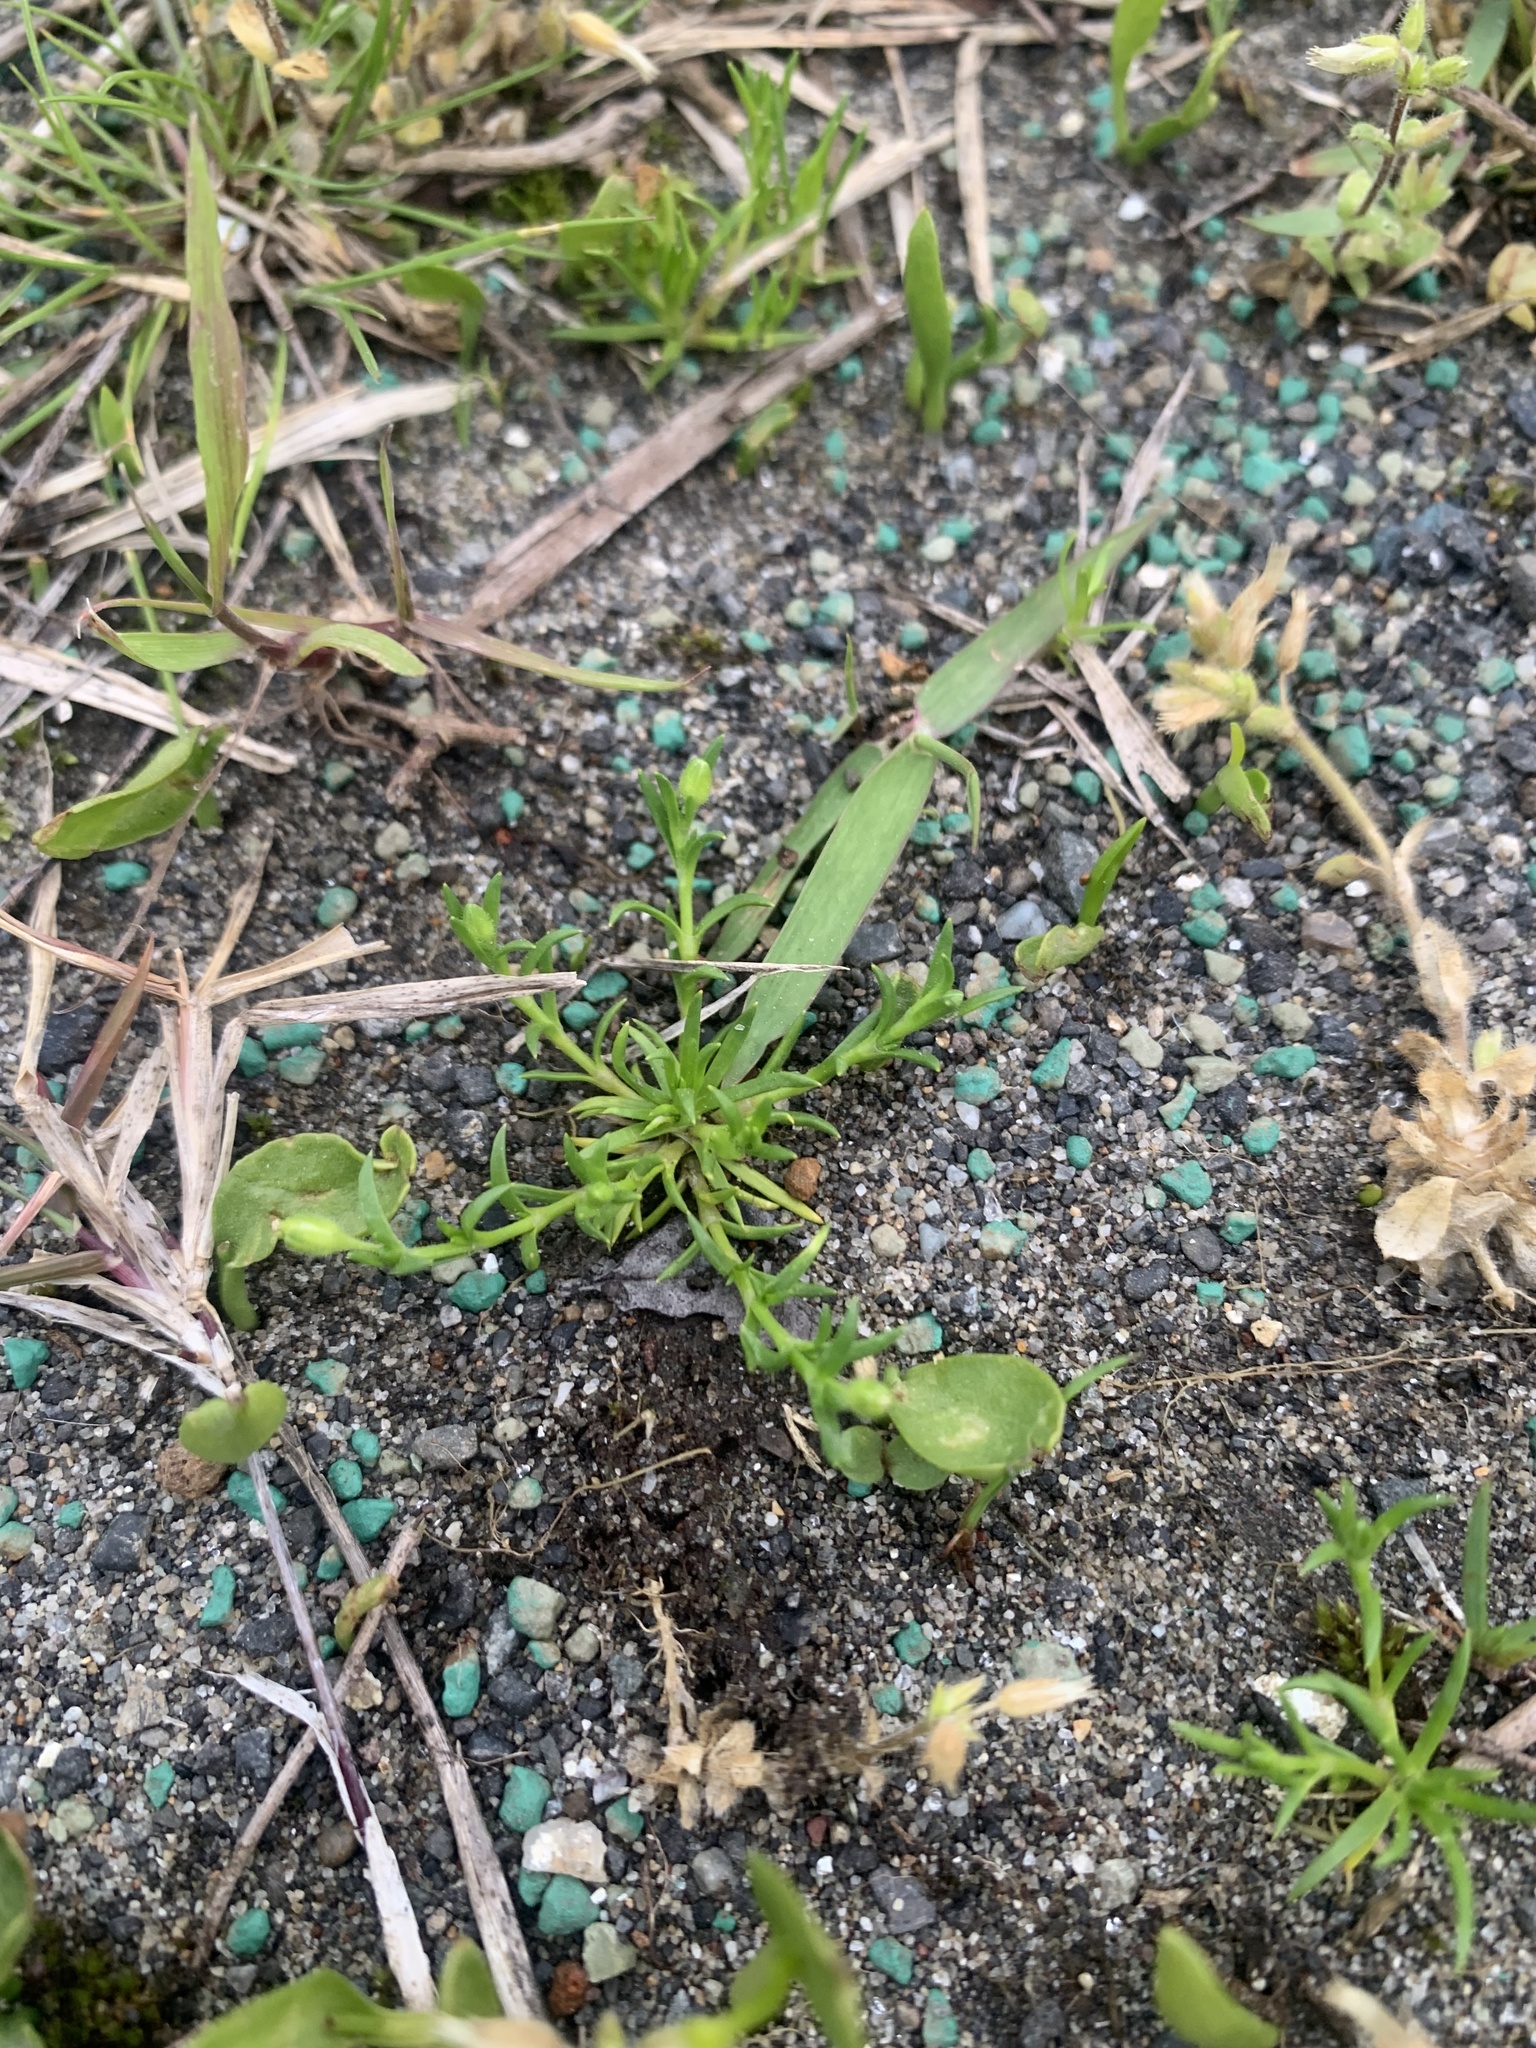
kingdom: Plantae
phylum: Tracheophyta
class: Magnoliopsida
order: Caryophyllales
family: Caryophyllaceae
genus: Sagina
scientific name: Sagina japonica
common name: Japanese pearlwort
